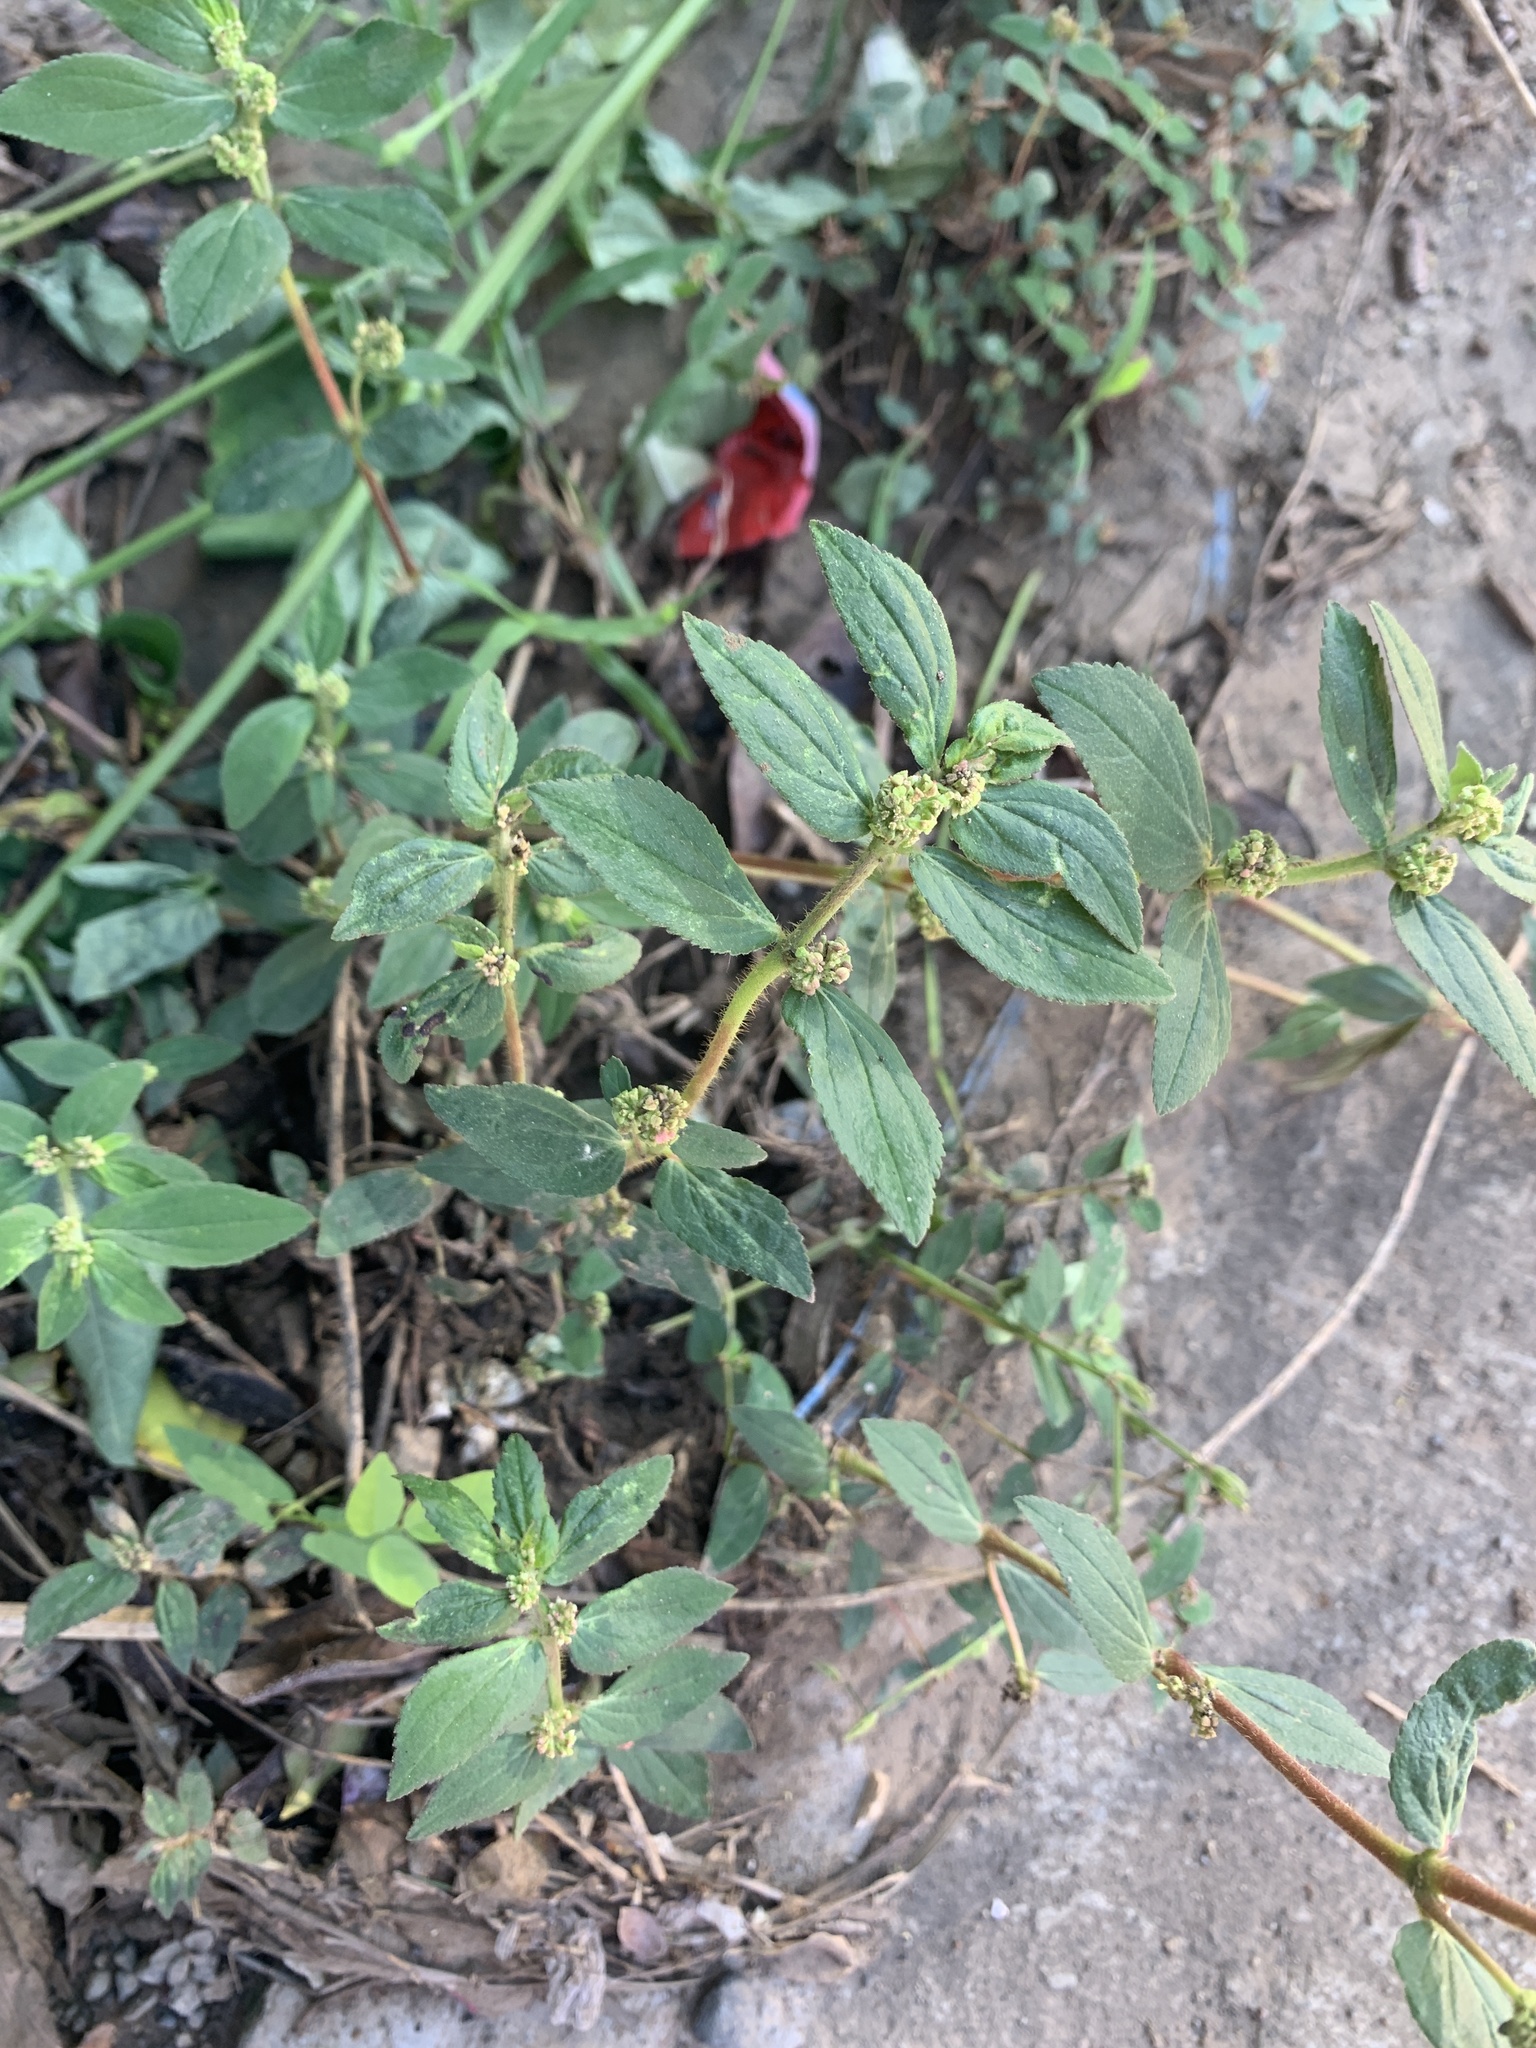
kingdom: Plantae
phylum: Tracheophyta
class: Magnoliopsida
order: Malpighiales
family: Euphorbiaceae
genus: Euphorbia
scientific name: Euphorbia hirta
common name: Pillpod sandmat
